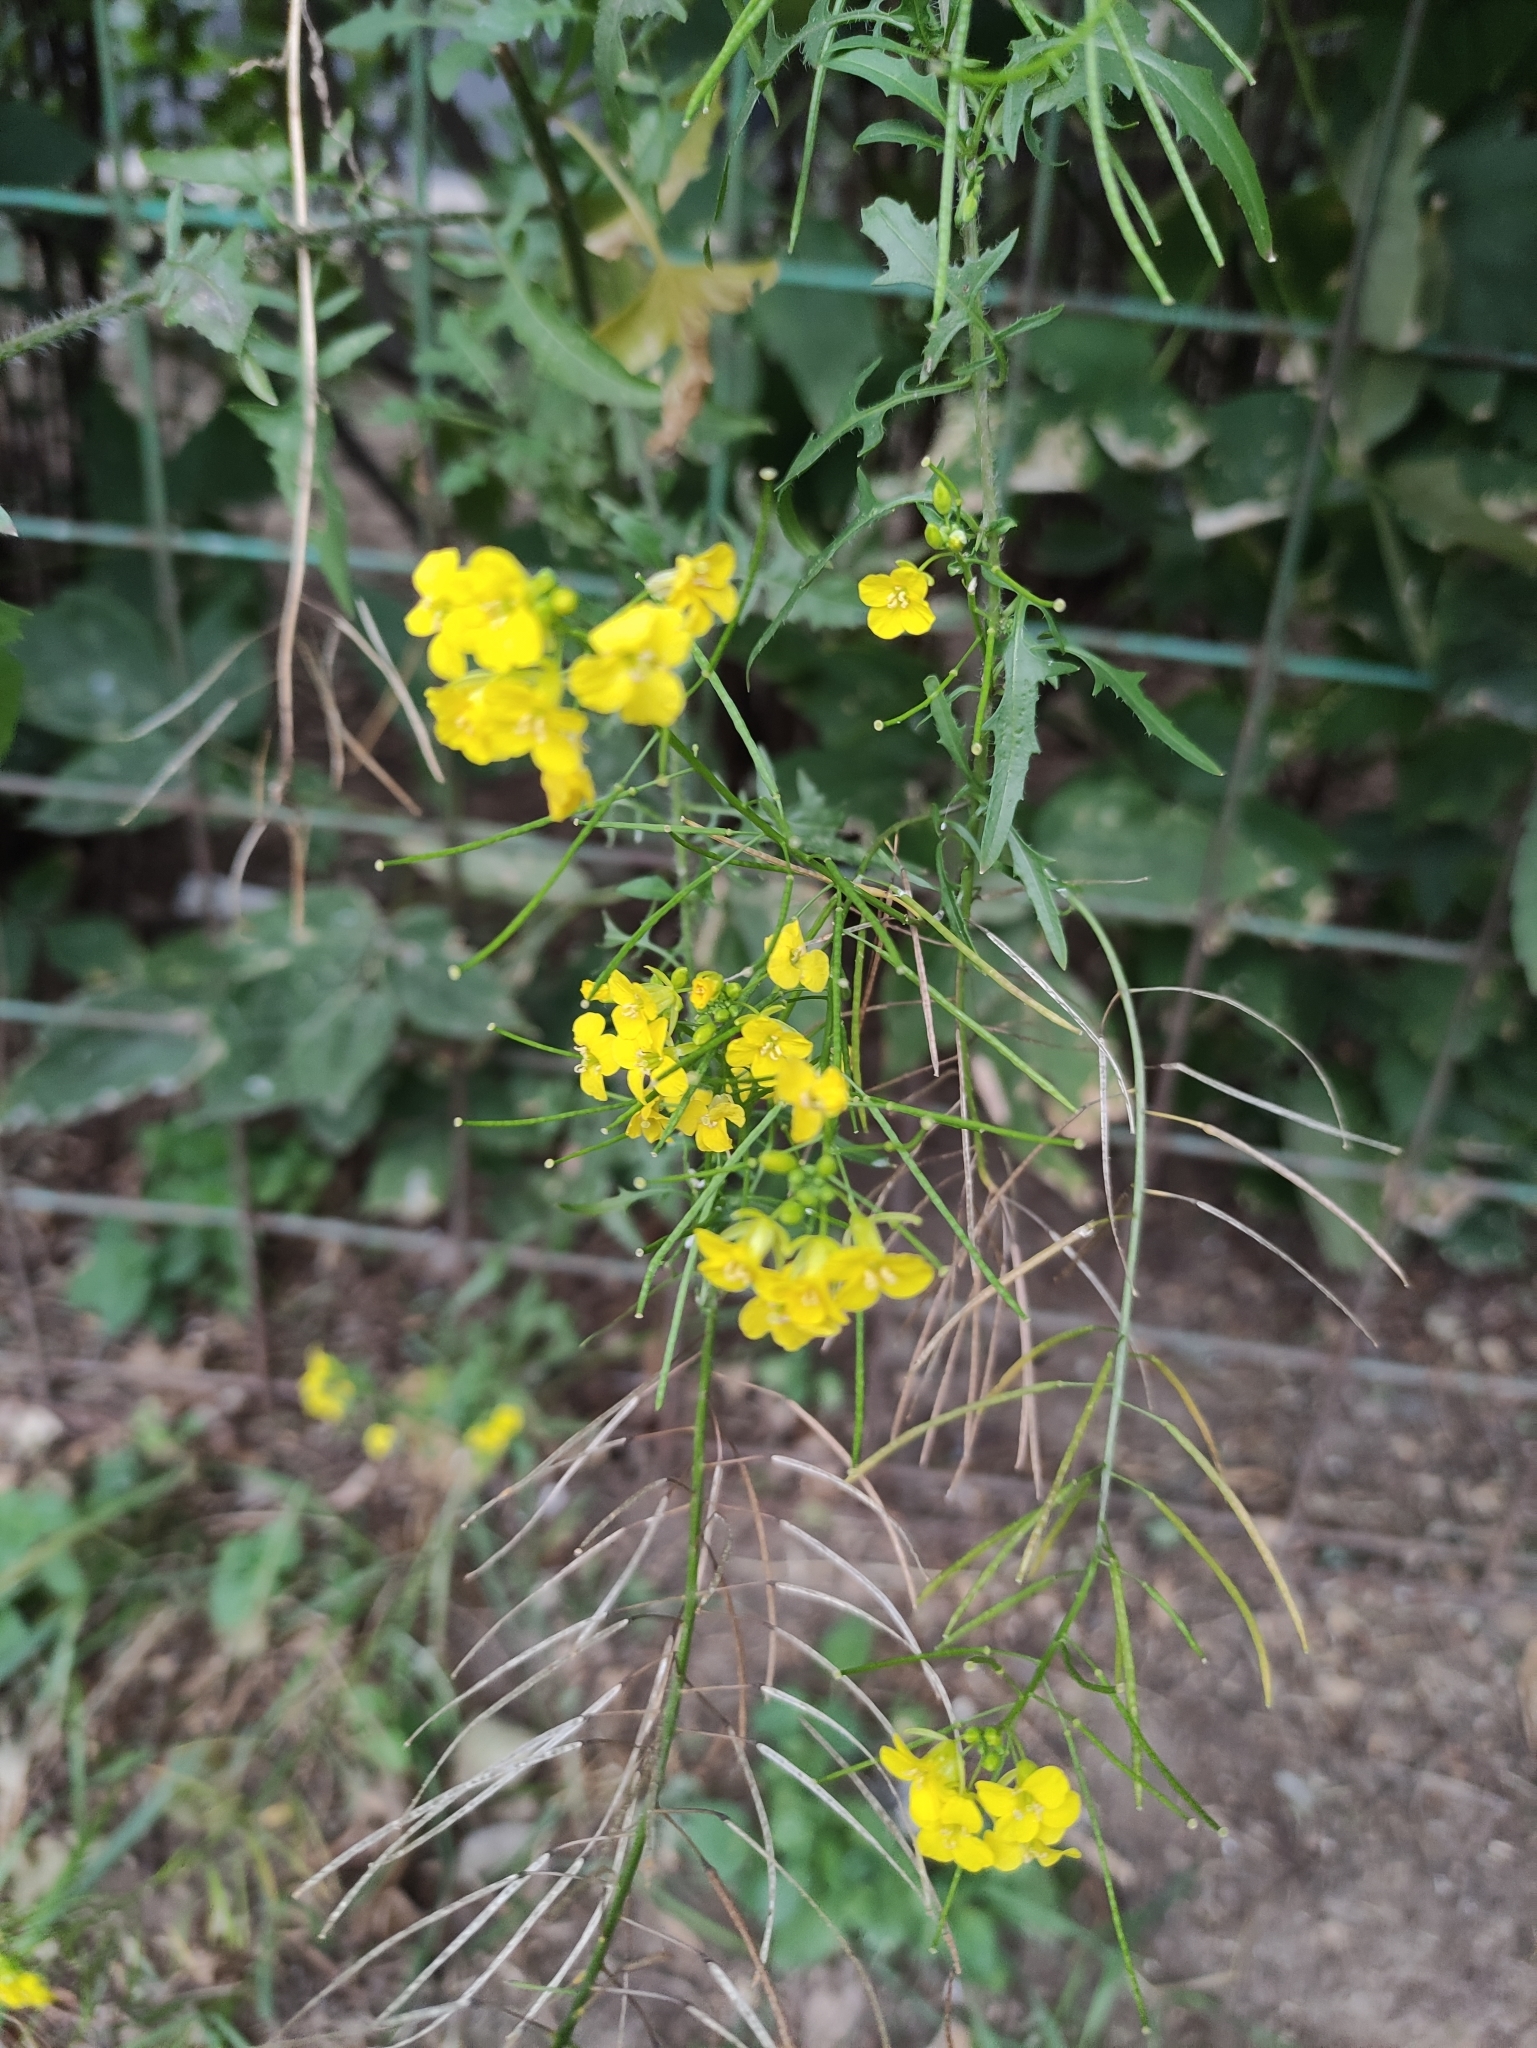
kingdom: Plantae
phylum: Tracheophyta
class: Magnoliopsida
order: Brassicales
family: Brassicaceae
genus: Sisymbrium
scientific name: Sisymbrium loeselii
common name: False london-rocket
